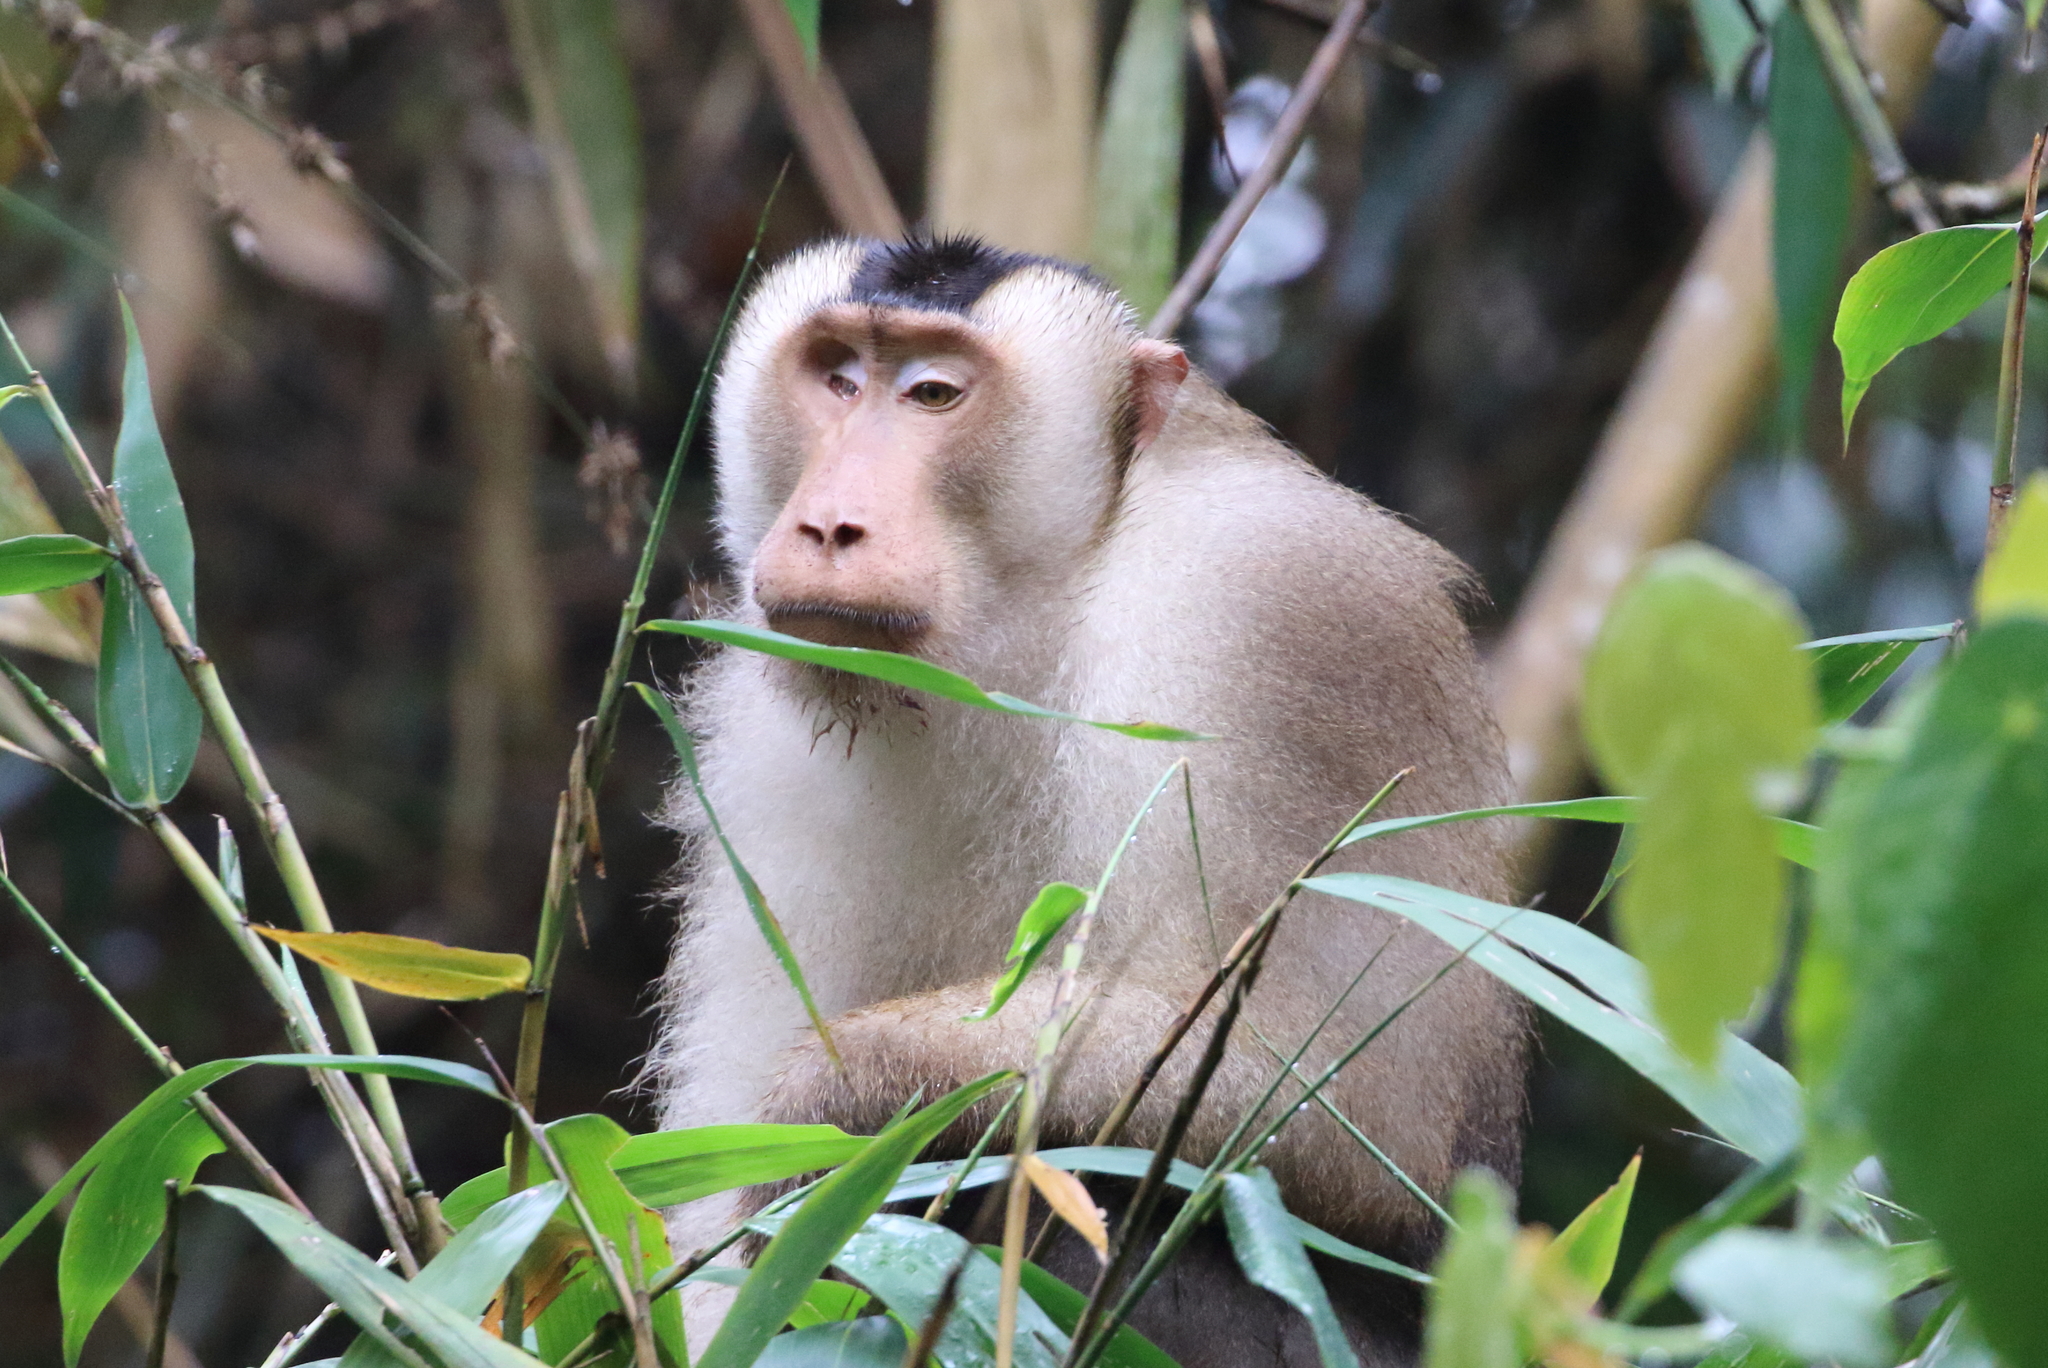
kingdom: Animalia
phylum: Chordata
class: Mammalia
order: Primates
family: Cercopithecidae
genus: Macaca
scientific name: Macaca nemestrina
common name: Southern pig-tailed macaque
